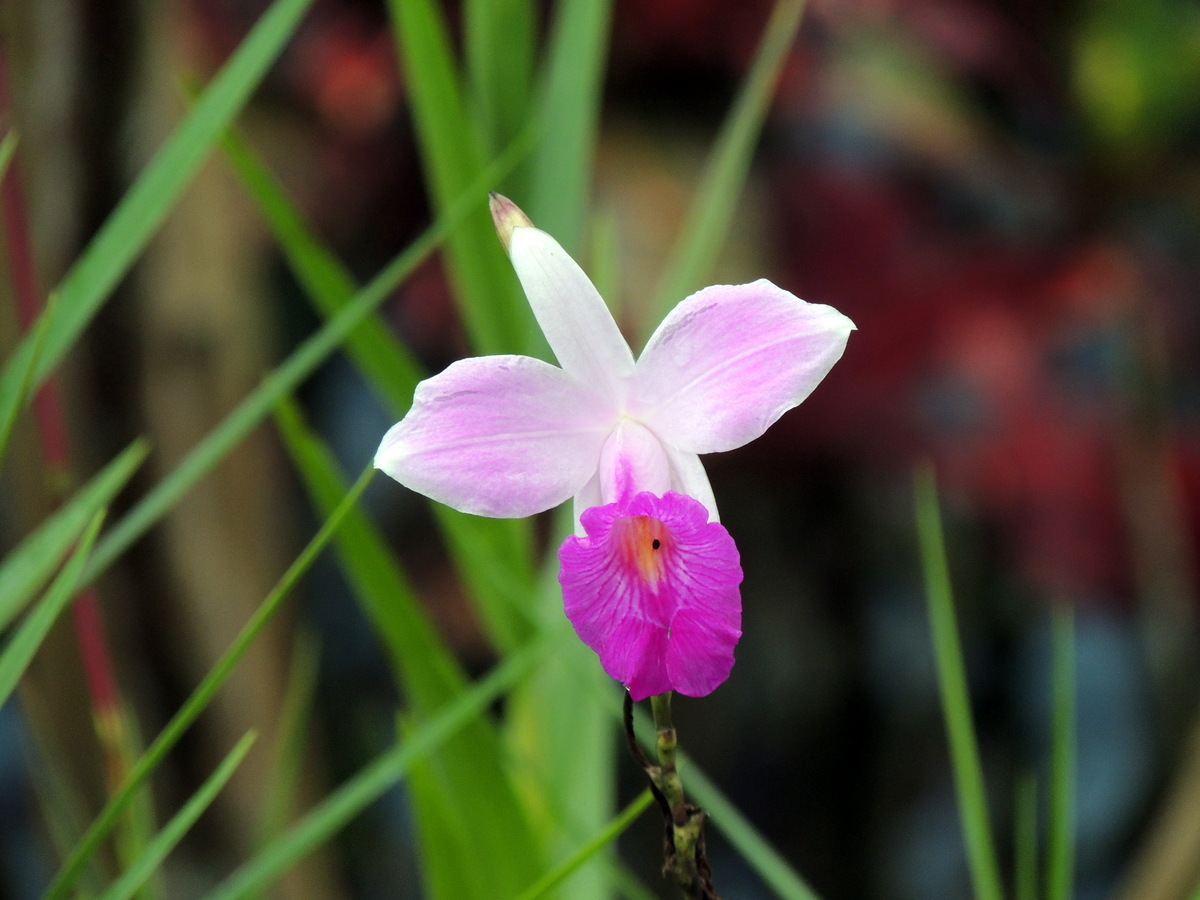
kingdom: Plantae
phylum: Tracheophyta
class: Liliopsida
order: Asparagales
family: Orchidaceae
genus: Arundina
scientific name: Arundina graminifolia
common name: Bamboo orchid
